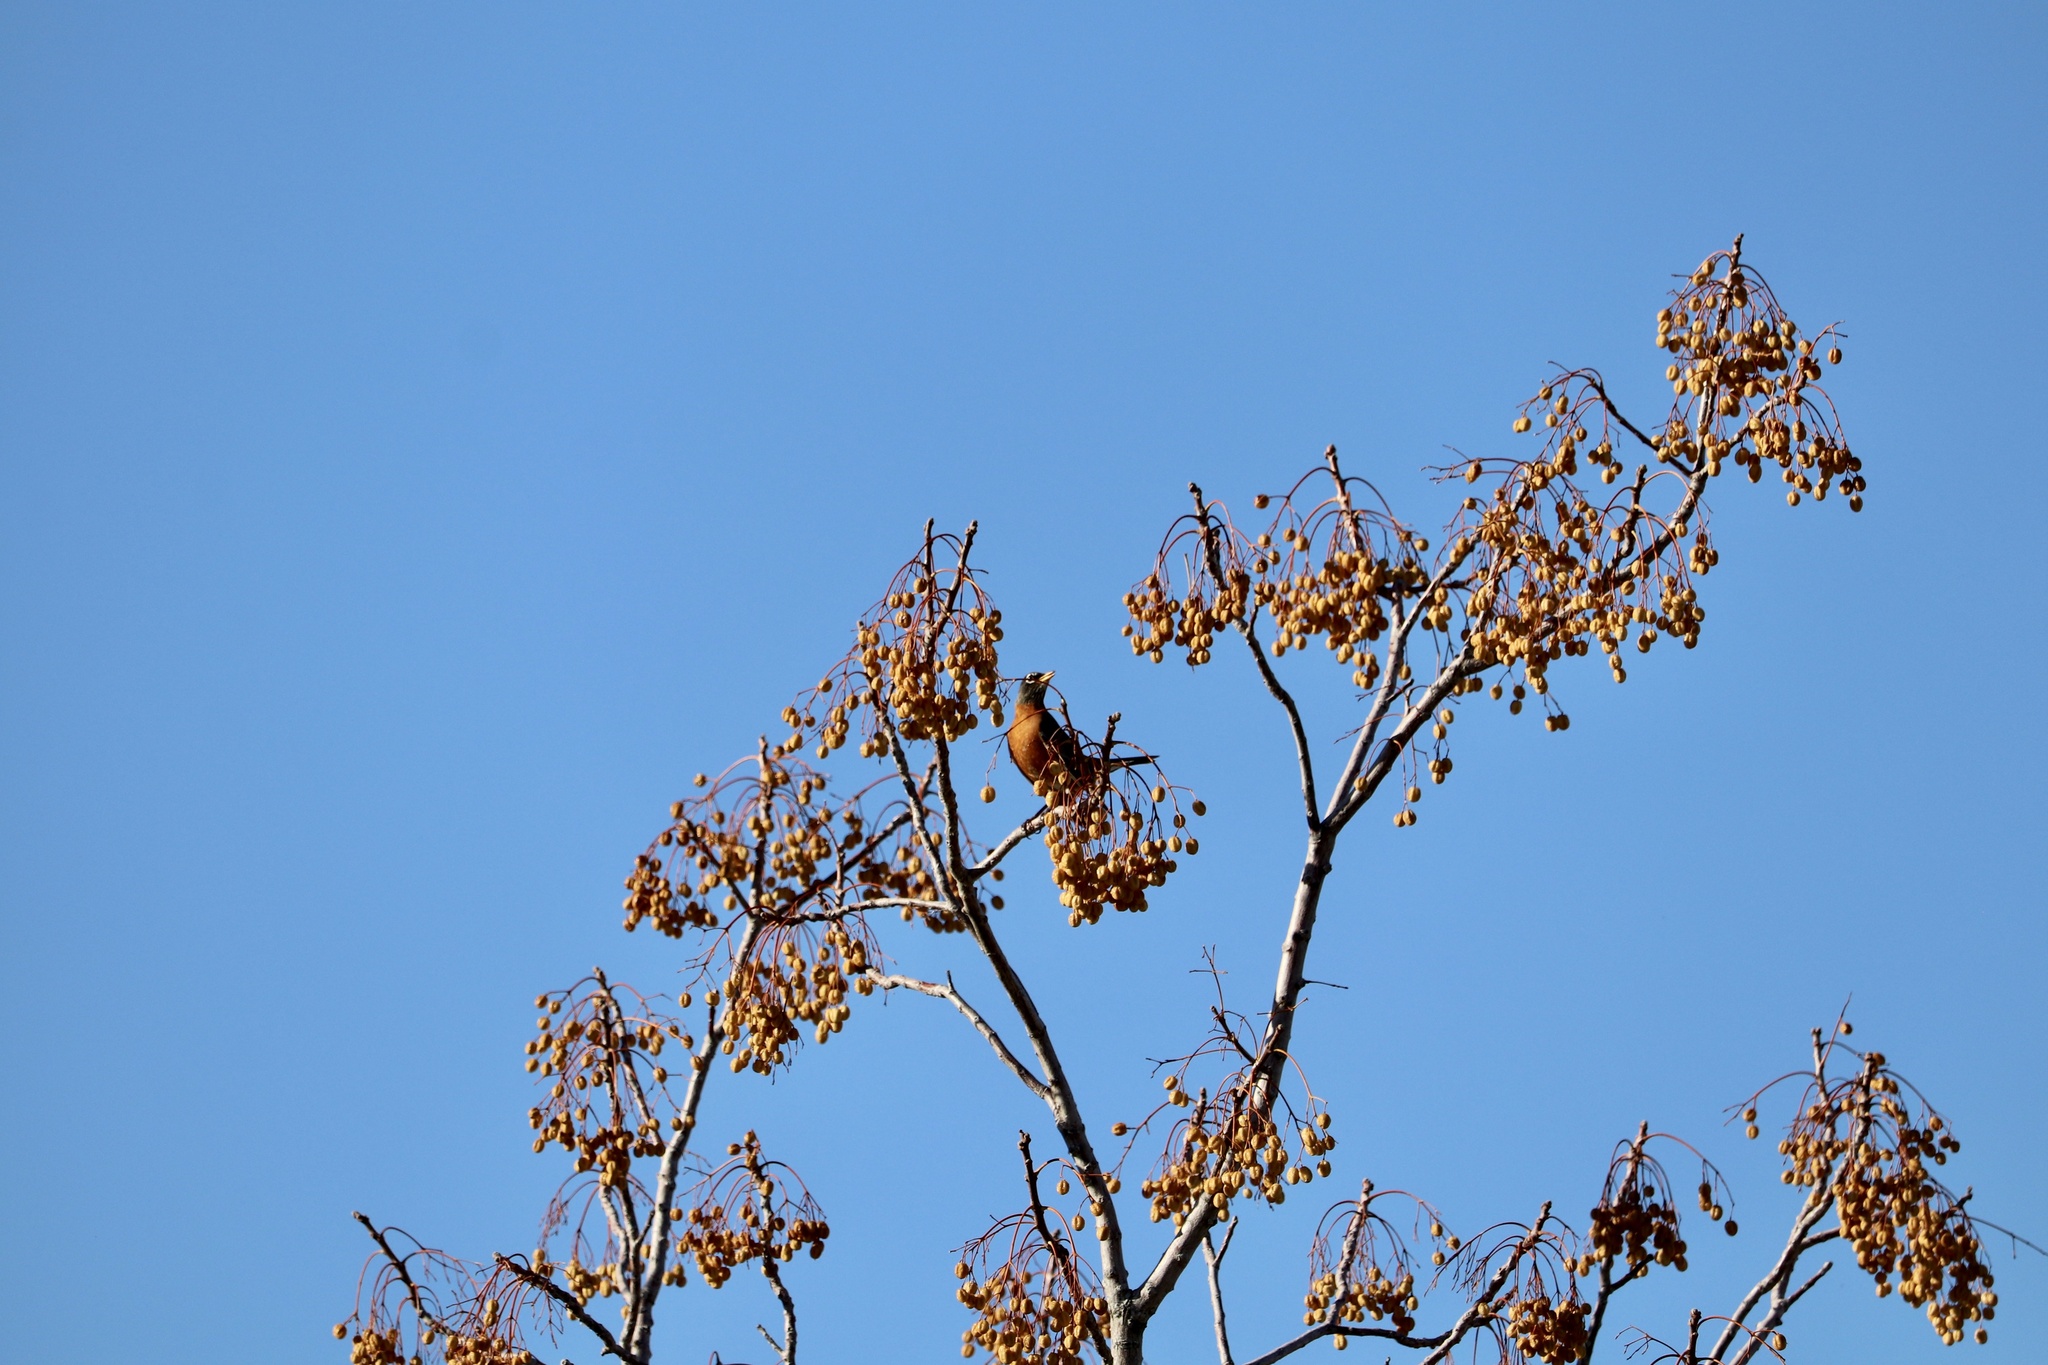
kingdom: Animalia
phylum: Chordata
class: Aves
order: Passeriformes
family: Turdidae
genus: Turdus
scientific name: Turdus migratorius
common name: American robin
